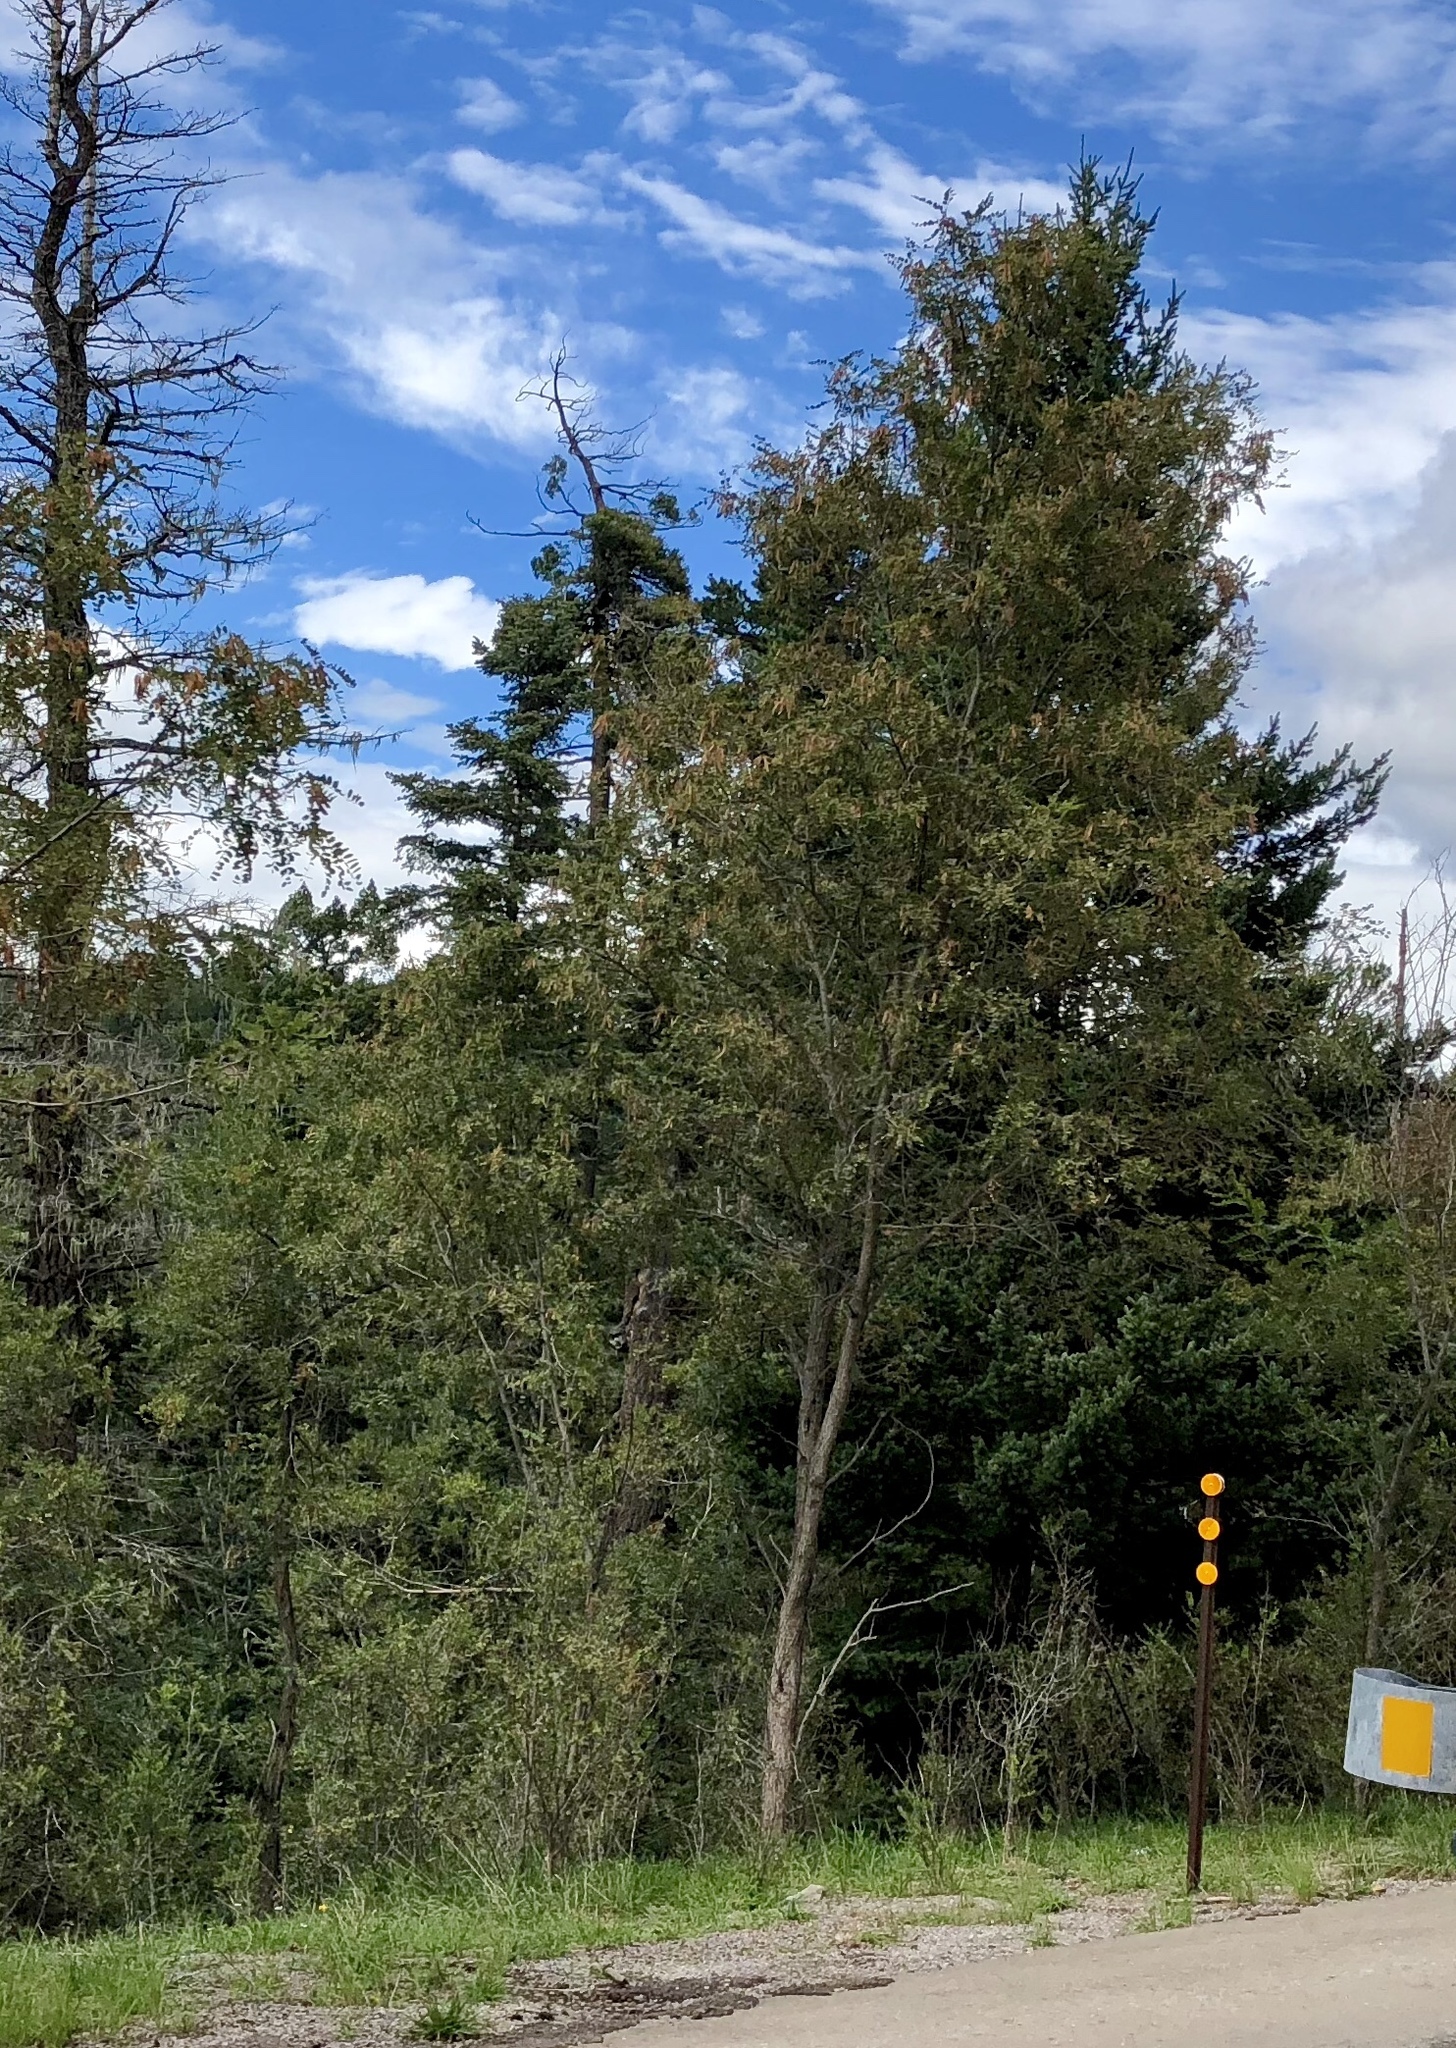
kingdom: Plantae
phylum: Tracheophyta
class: Magnoliopsida
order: Fabales
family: Fabaceae
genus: Robinia
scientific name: Robinia neomexicana
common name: New mexico locust
